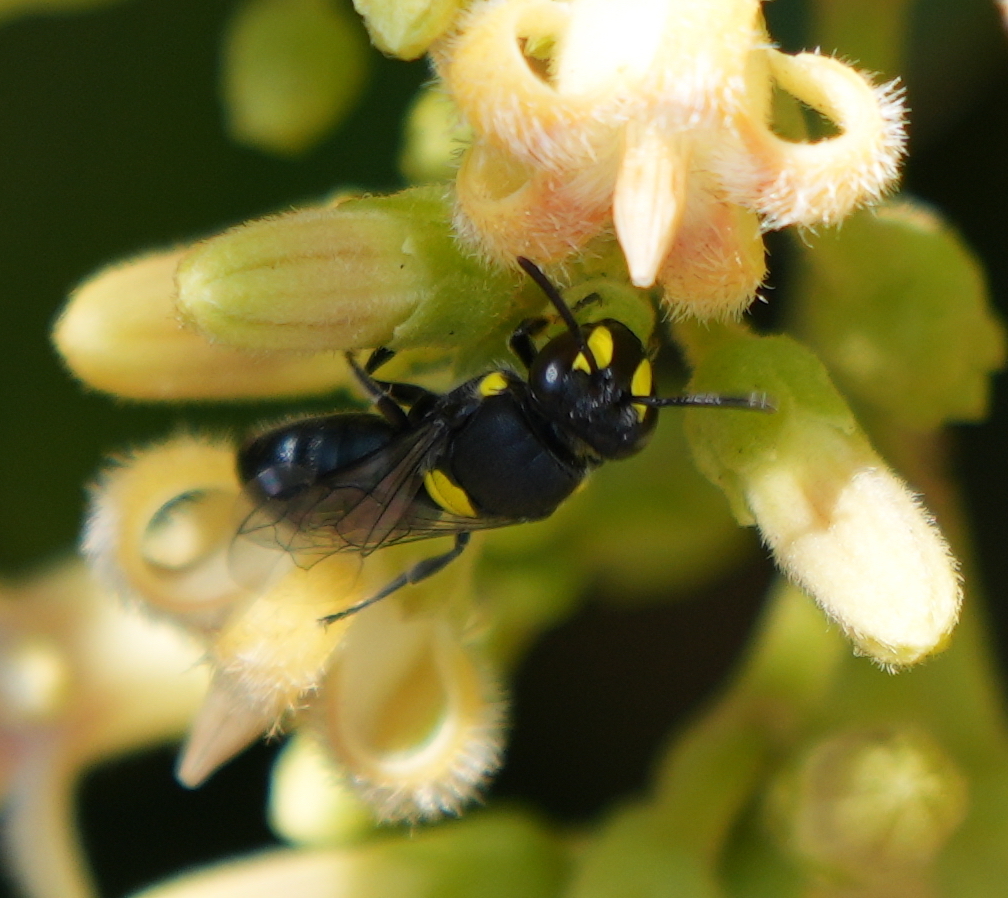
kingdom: Animalia
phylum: Arthropoda
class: Insecta
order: Hymenoptera
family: Colletidae
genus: Hylaeus
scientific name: Hylaeus certus
